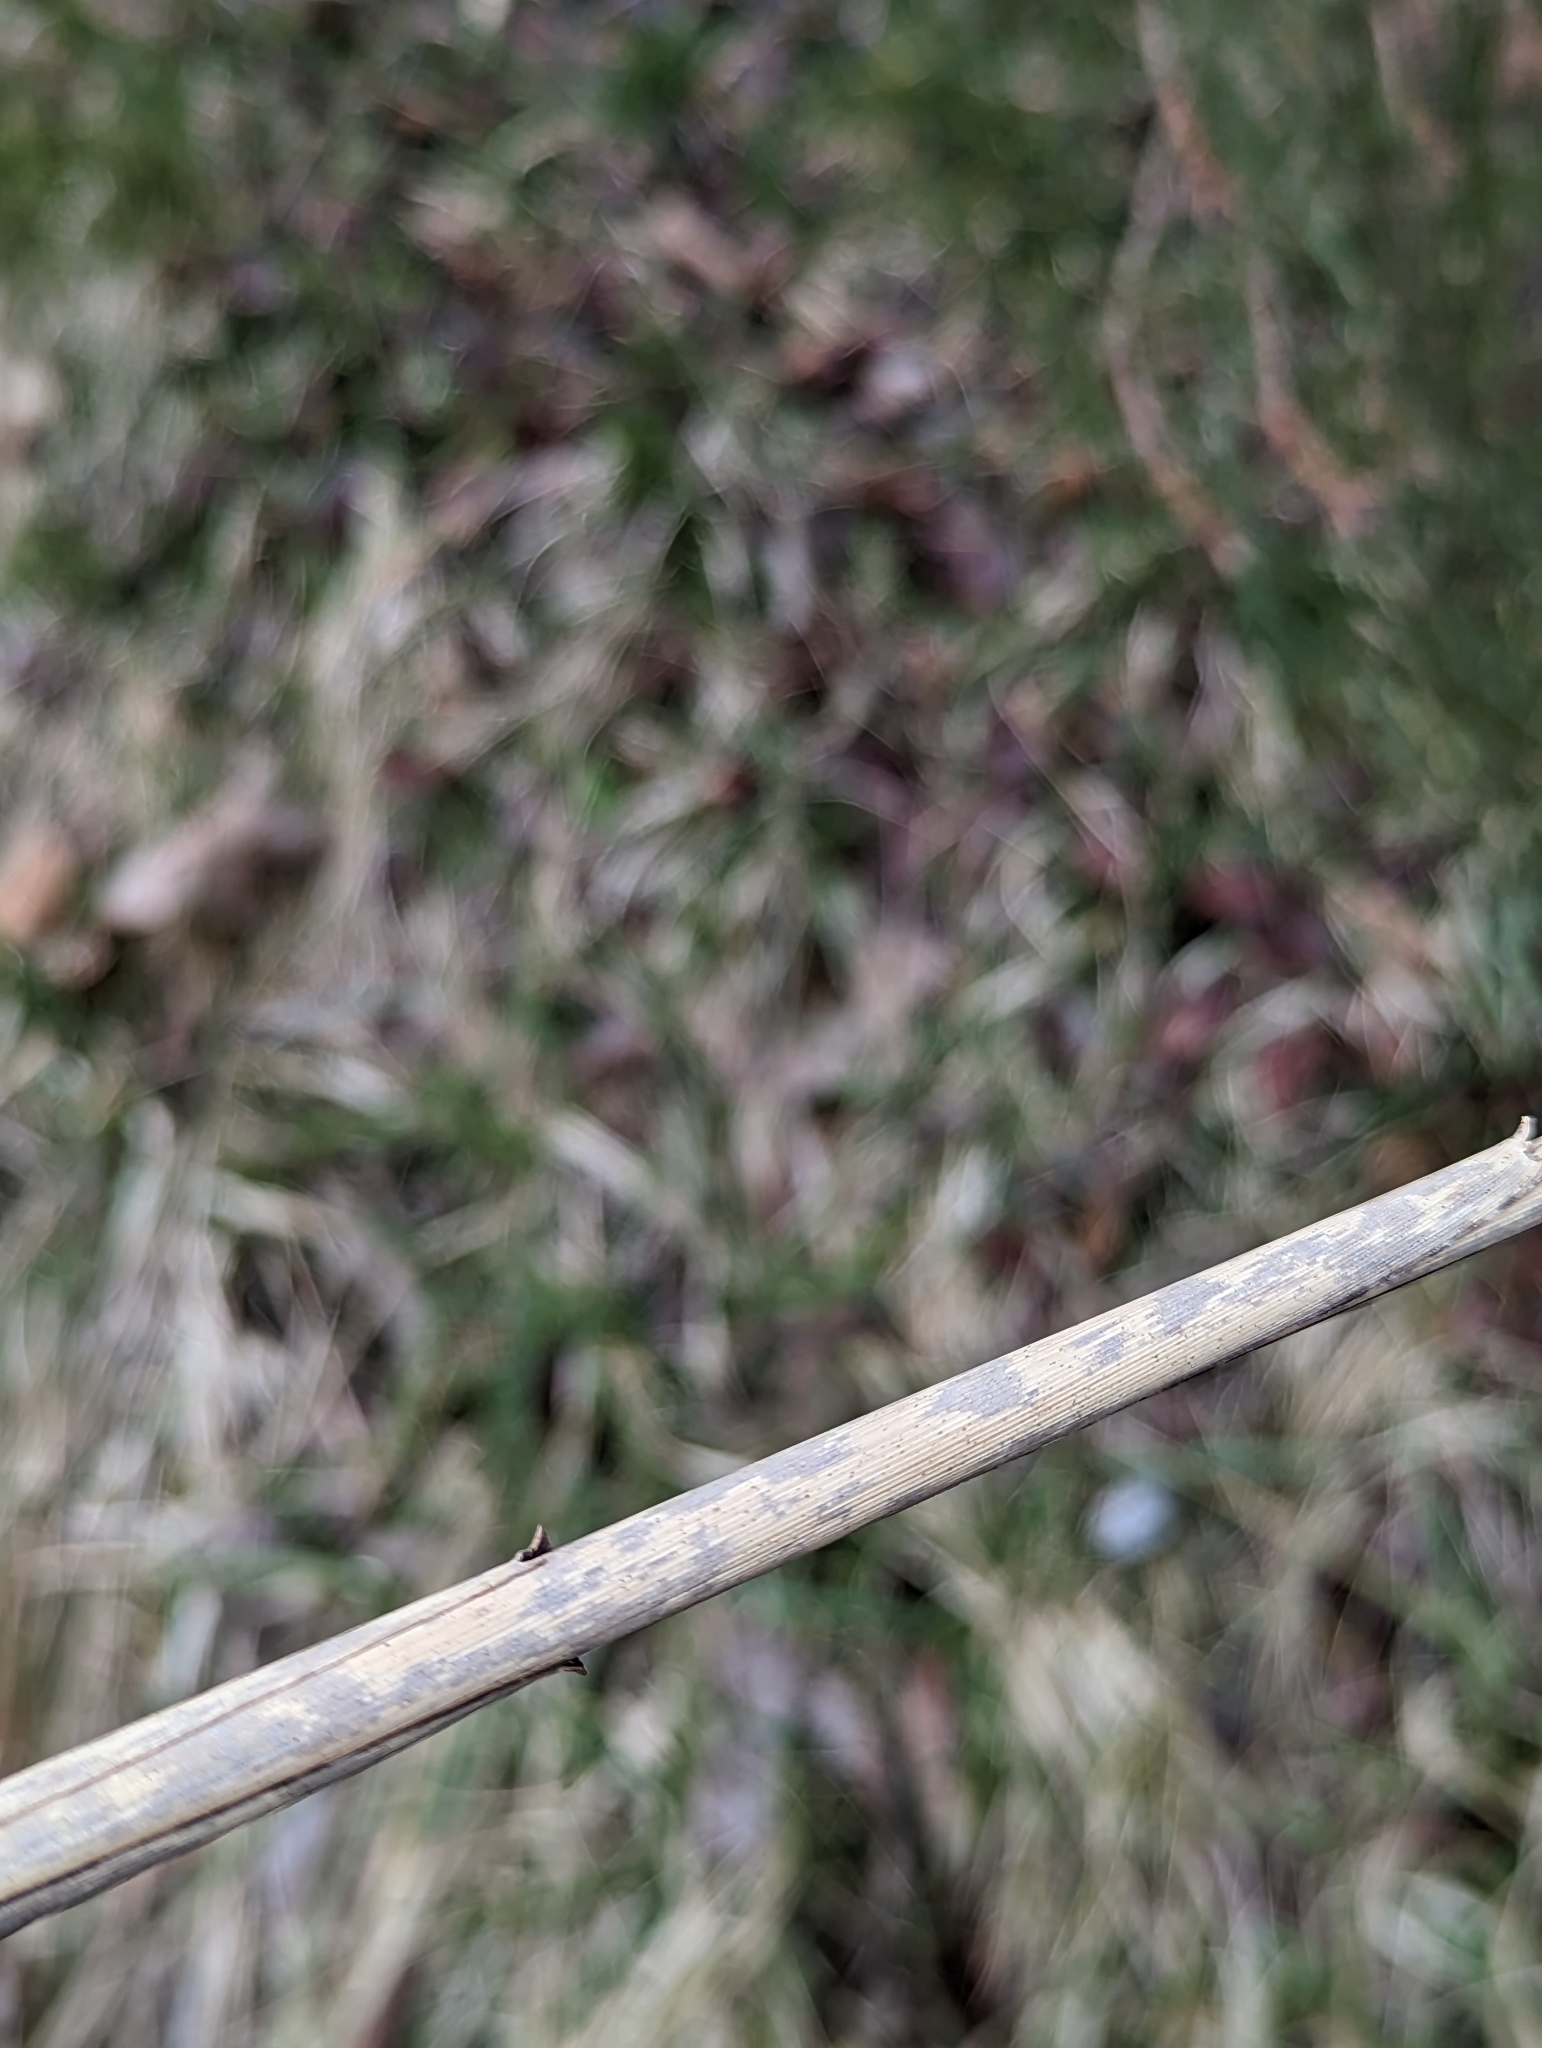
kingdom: Plantae
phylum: Tracheophyta
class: Liliopsida
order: Poales
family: Poaceae
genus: Phragmites
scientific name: Phragmites australis
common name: Common reed
